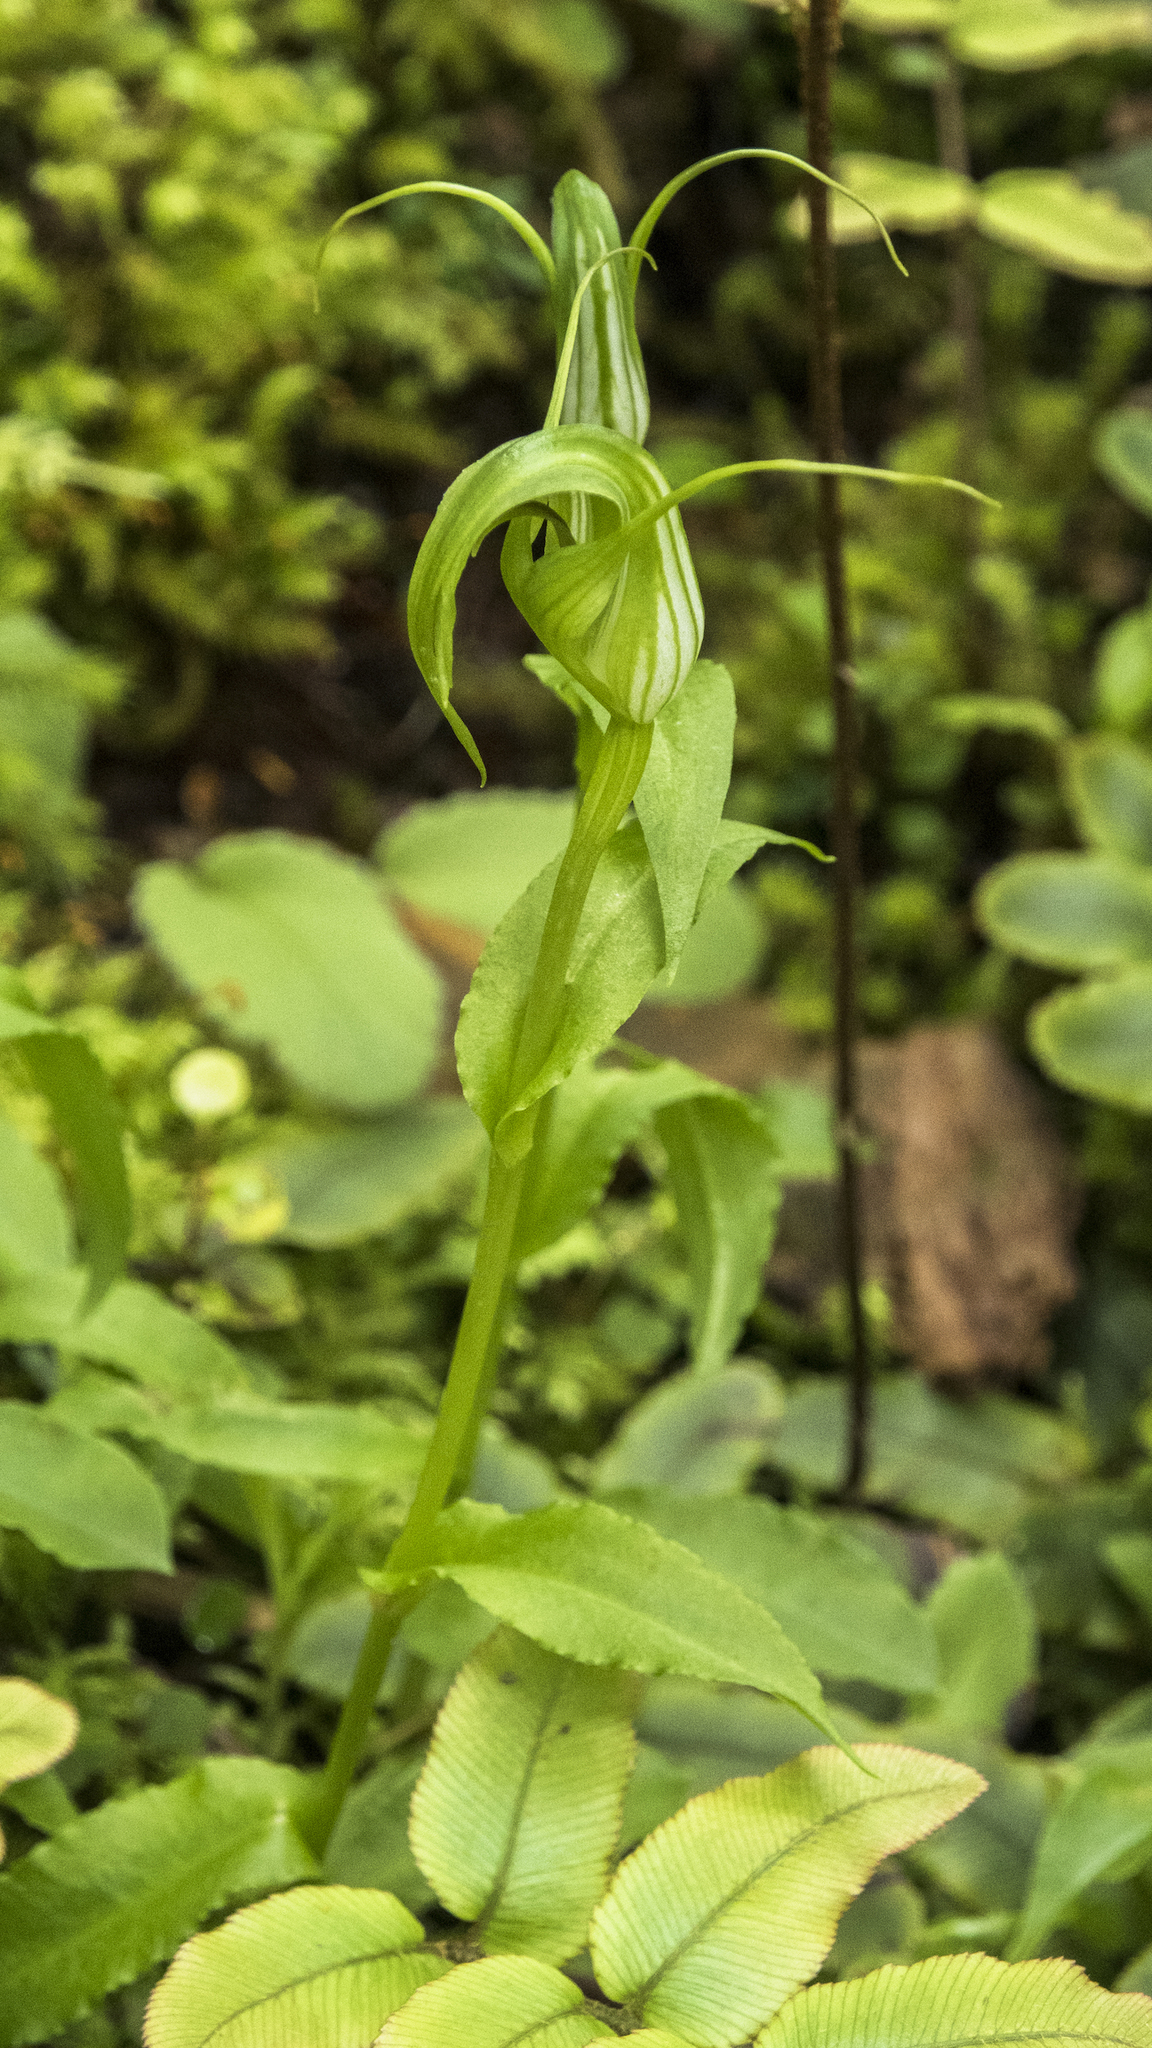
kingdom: Plantae
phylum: Tracheophyta
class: Liliopsida
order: Asparagales
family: Orchidaceae
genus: Pterostylis
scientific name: Pterostylis oliveri
